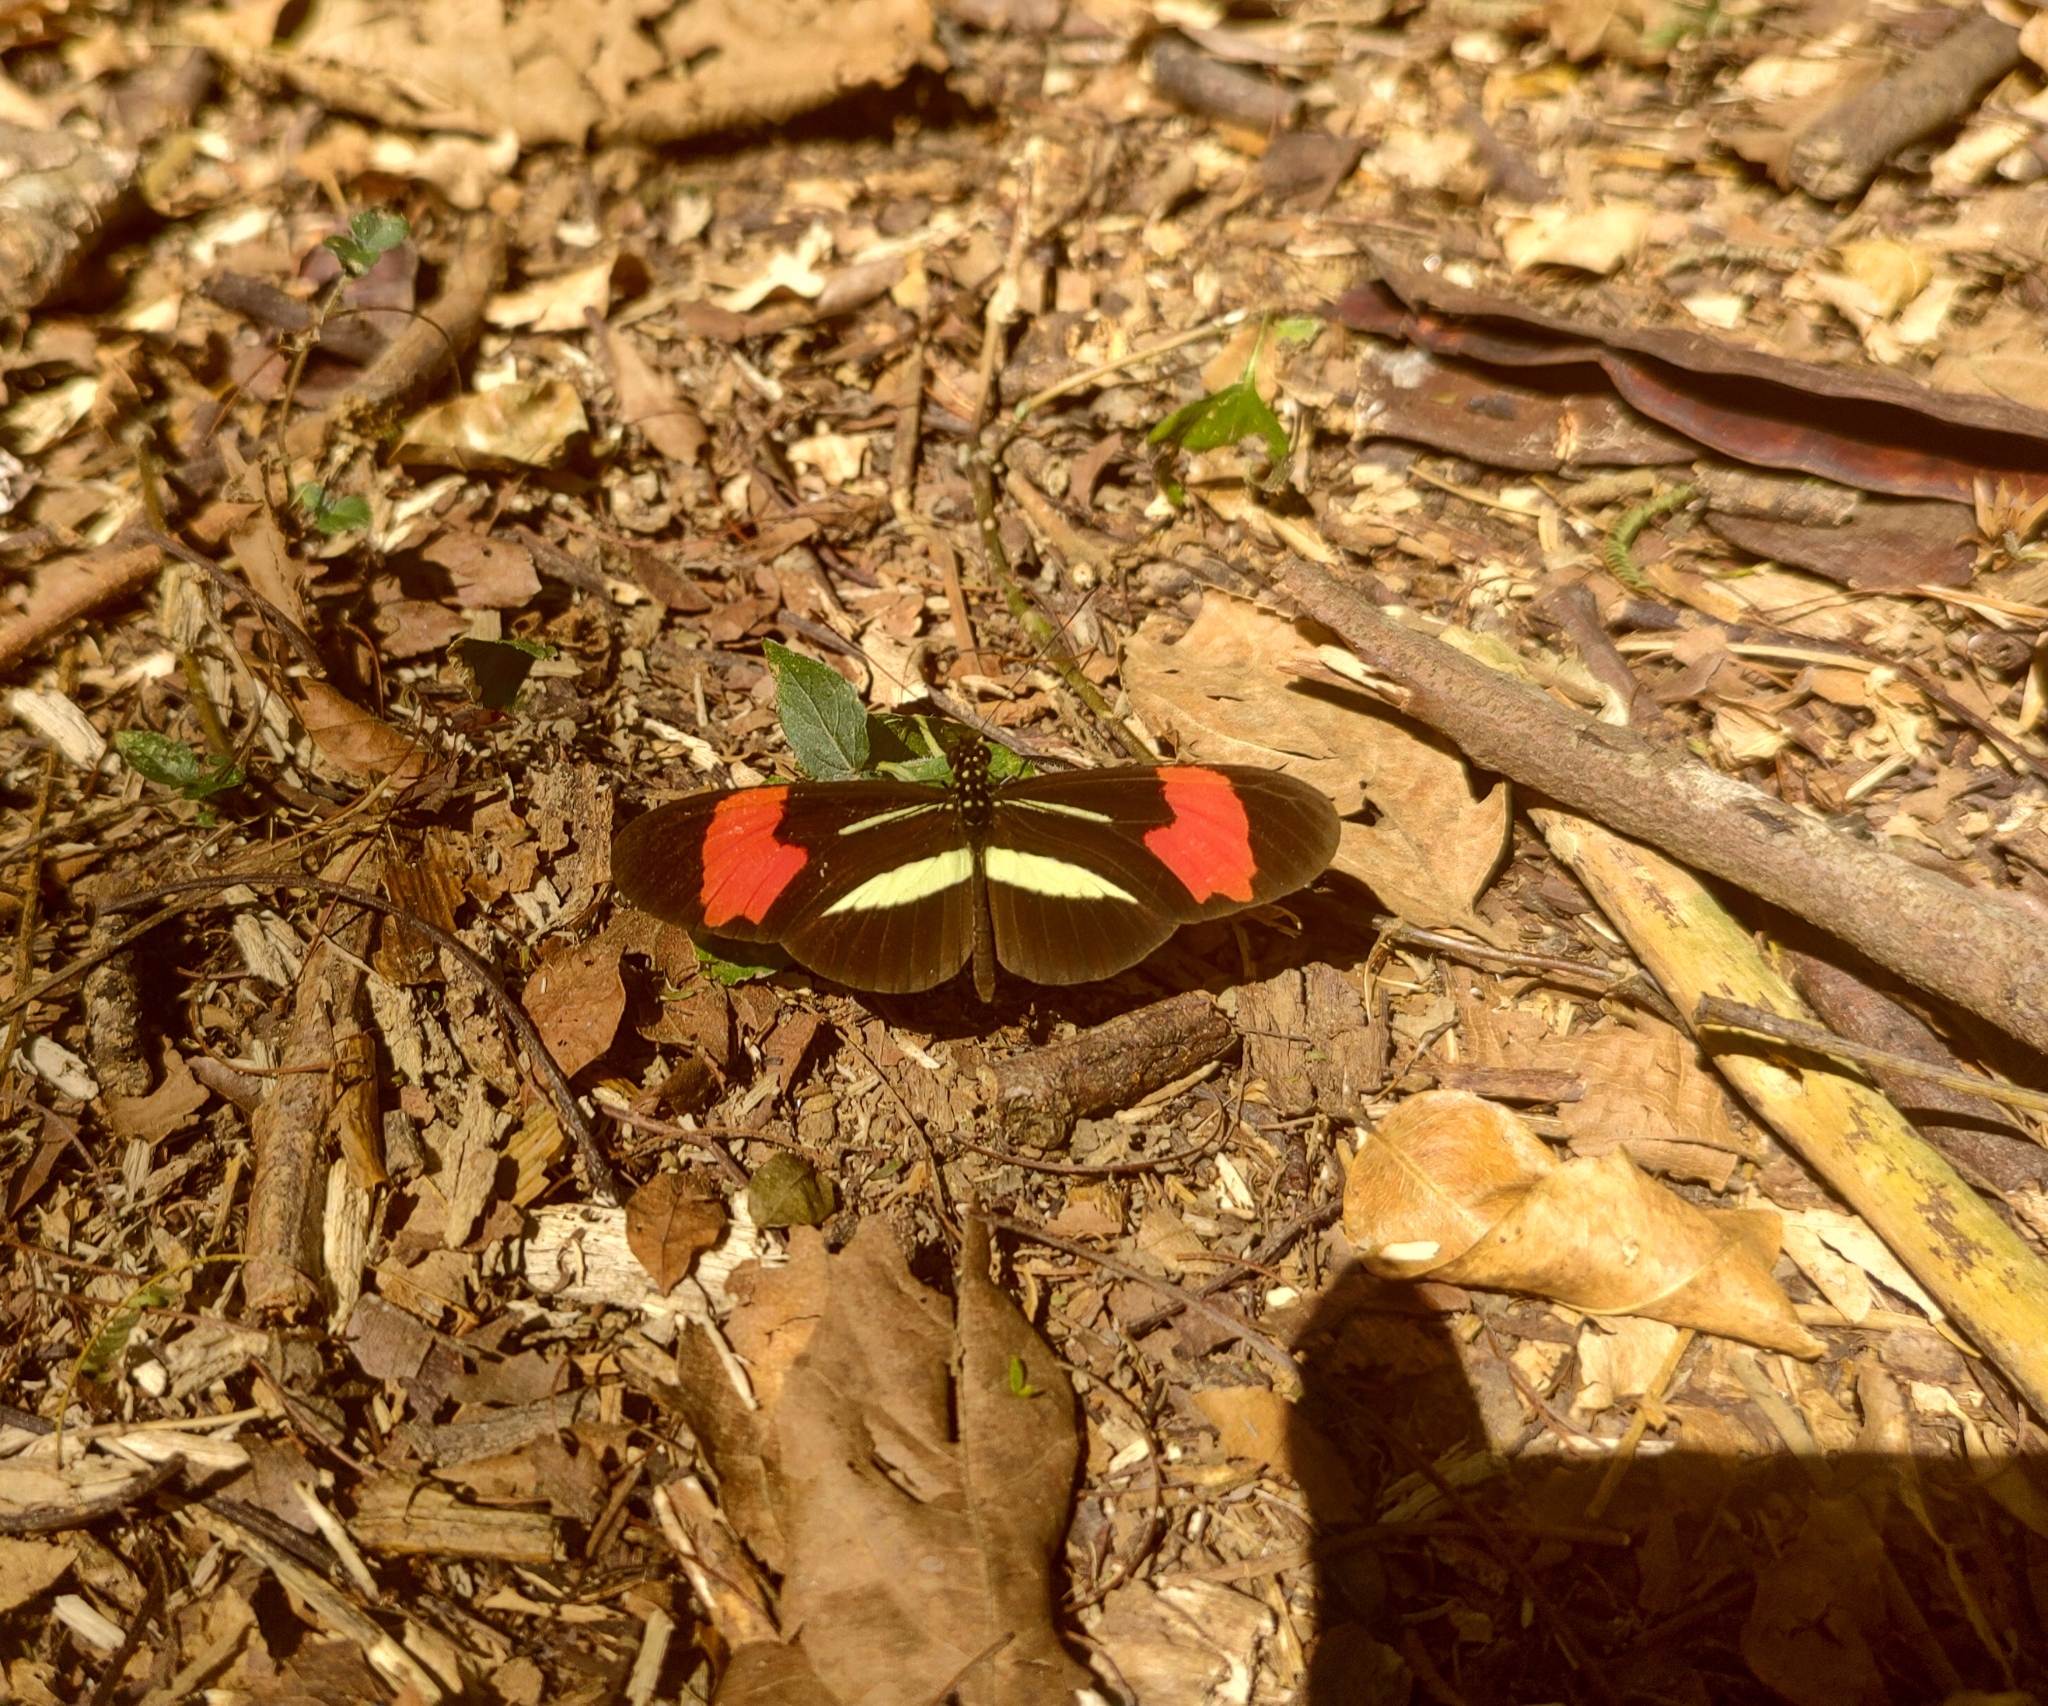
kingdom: Animalia
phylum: Arthropoda
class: Insecta
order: Lepidoptera
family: Nymphalidae
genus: Heliconius
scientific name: Heliconius erato
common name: Common patch longwing
